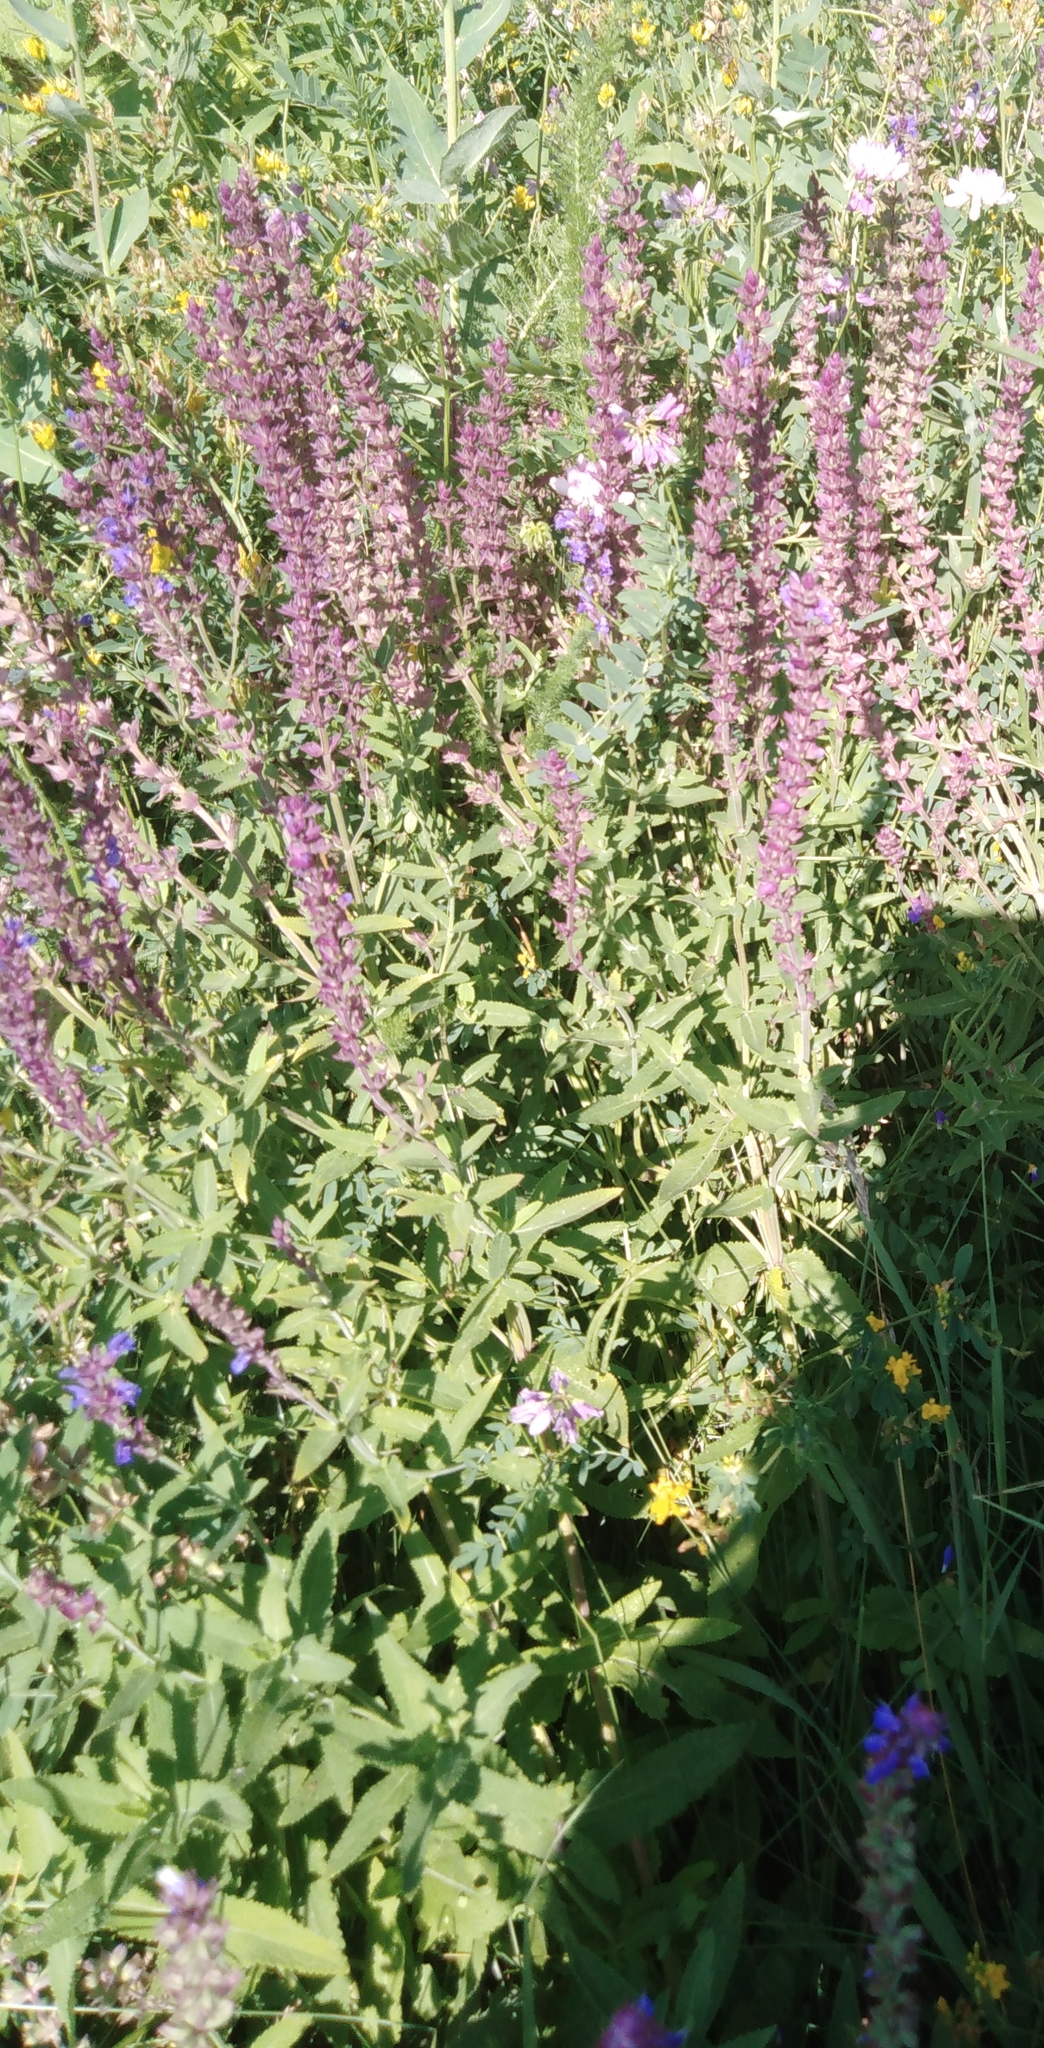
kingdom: Plantae
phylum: Tracheophyta
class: Magnoliopsida
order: Lamiales
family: Lamiaceae
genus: Salvia
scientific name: Salvia nemorosa
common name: Balkan clary
